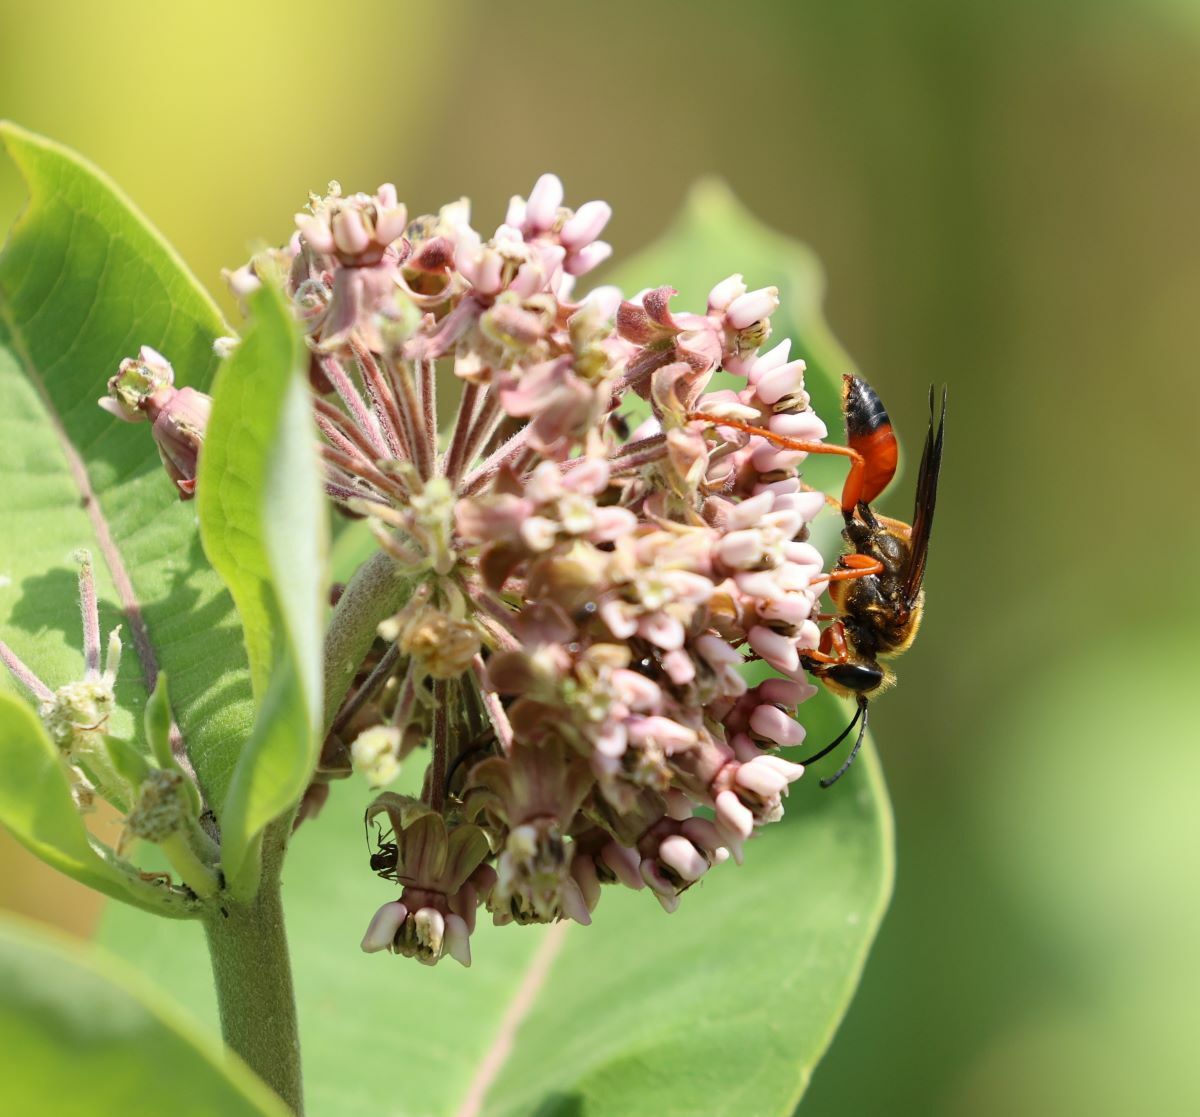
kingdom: Animalia
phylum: Arthropoda
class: Insecta
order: Hymenoptera
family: Sphecidae
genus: Sphex
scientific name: Sphex ichneumoneus
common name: Great golden digger wasp
